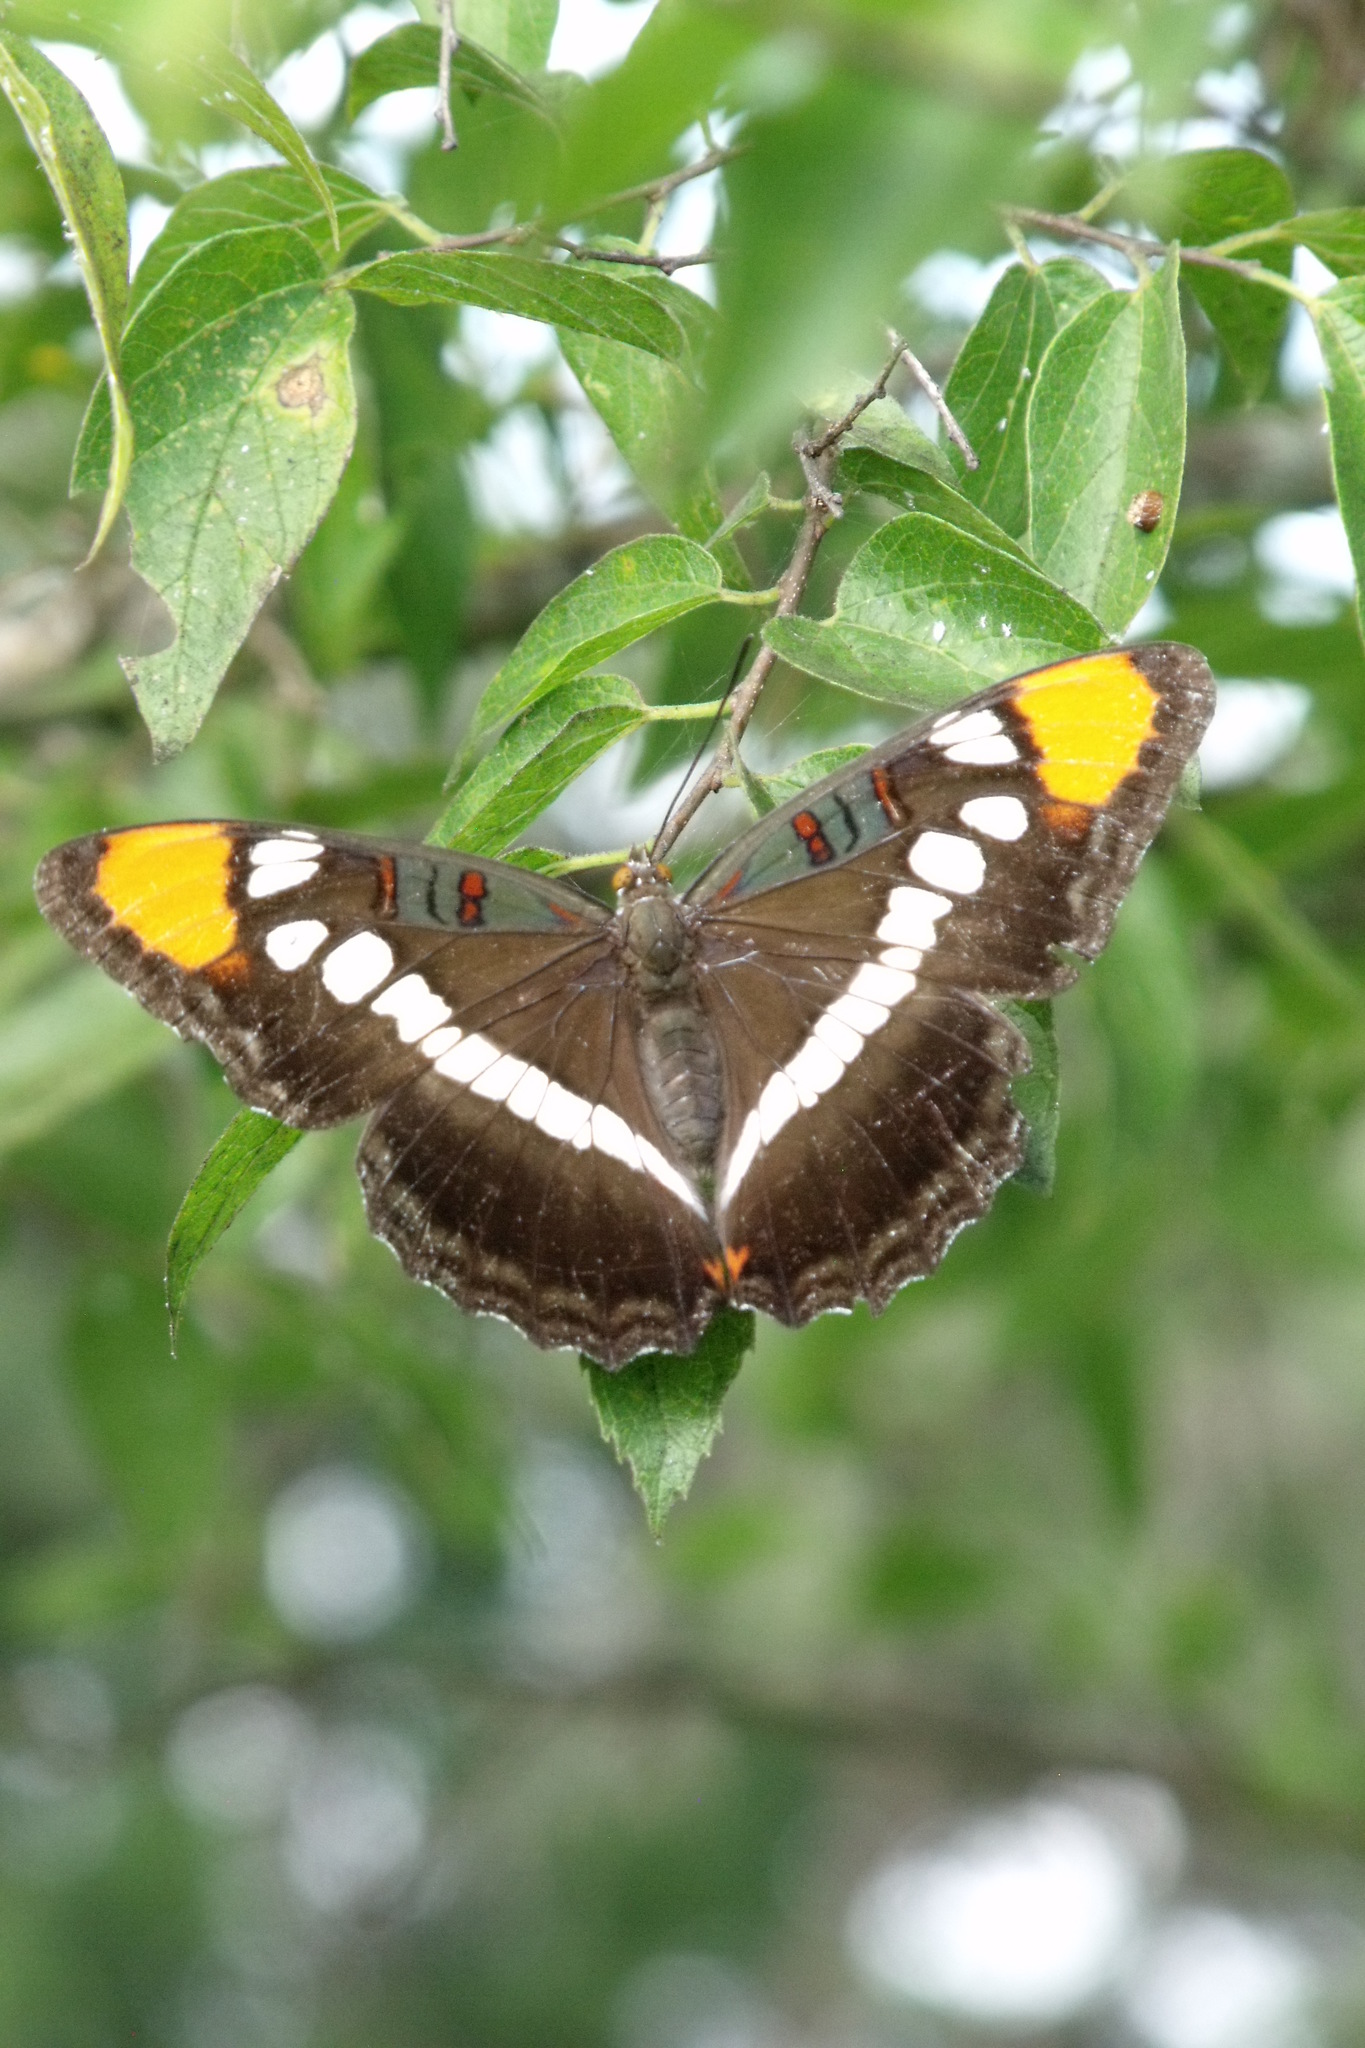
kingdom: Animalia
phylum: Arthropoda
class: Insecta
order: Lepidoptera
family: Nymphalidae
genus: Limenitis
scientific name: Limenitis bredowii
